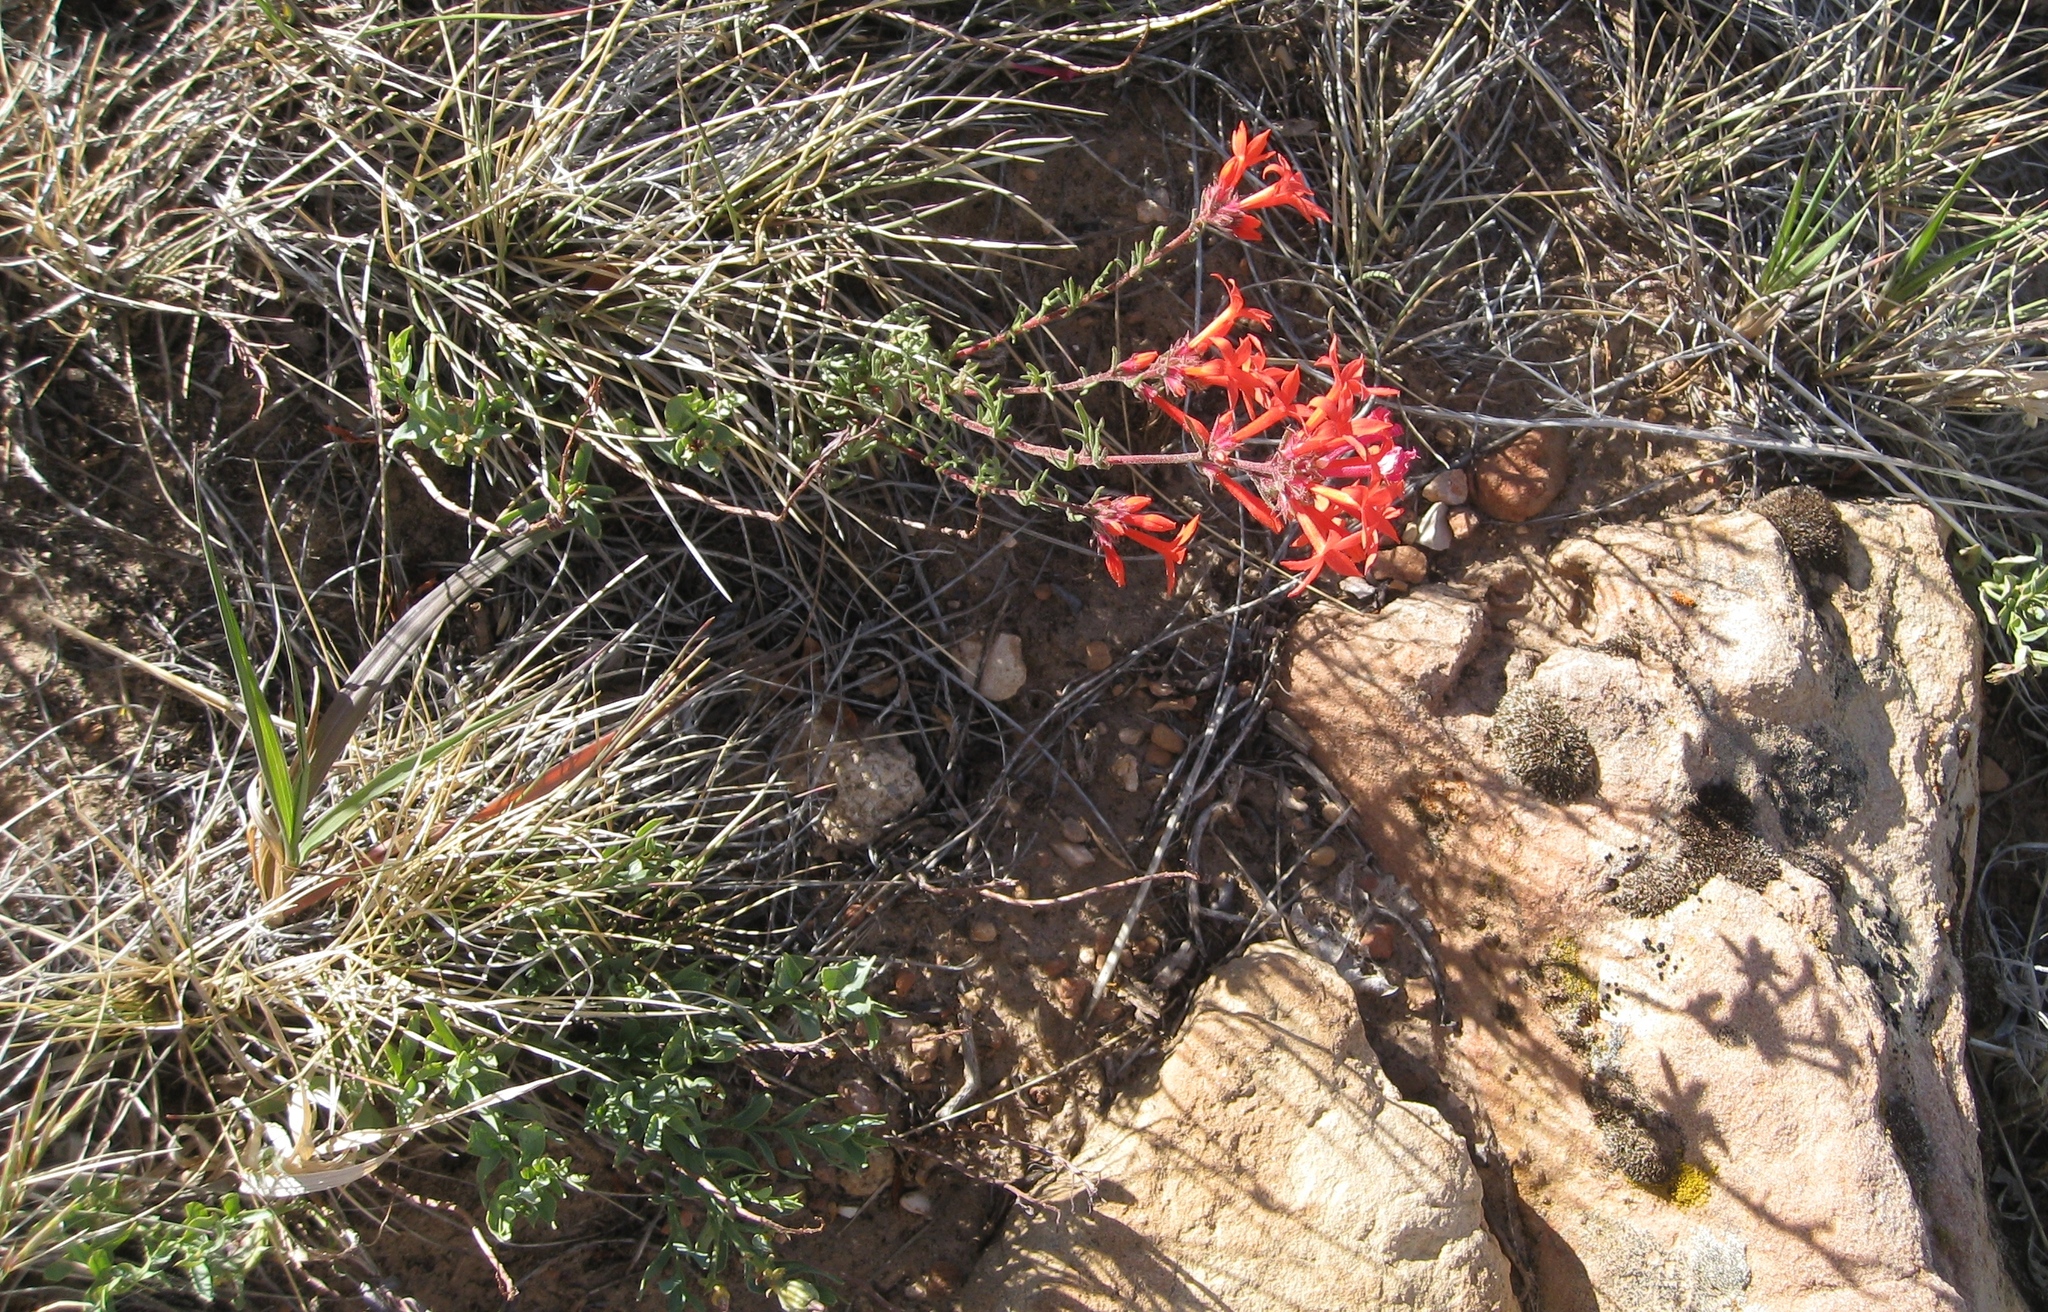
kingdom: Plantae
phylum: Tracheophyta
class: Magnoliopsida
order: Ericales
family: Polemoniaceae
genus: Ipomopsis
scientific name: Ipomopsis arizonica
